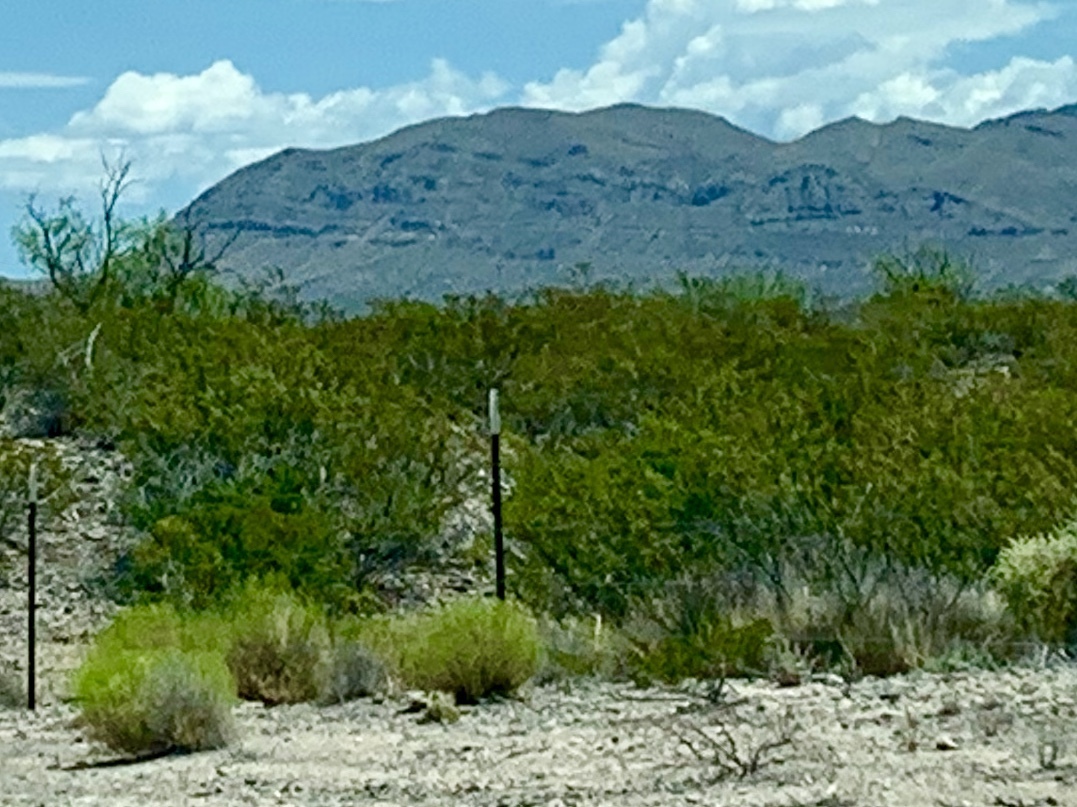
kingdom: Plantae
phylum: Tracheophyta
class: Magnoliopsida
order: Zygophyllales
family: Zygophyllaceae
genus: Larrea
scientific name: Larrea tridentata
